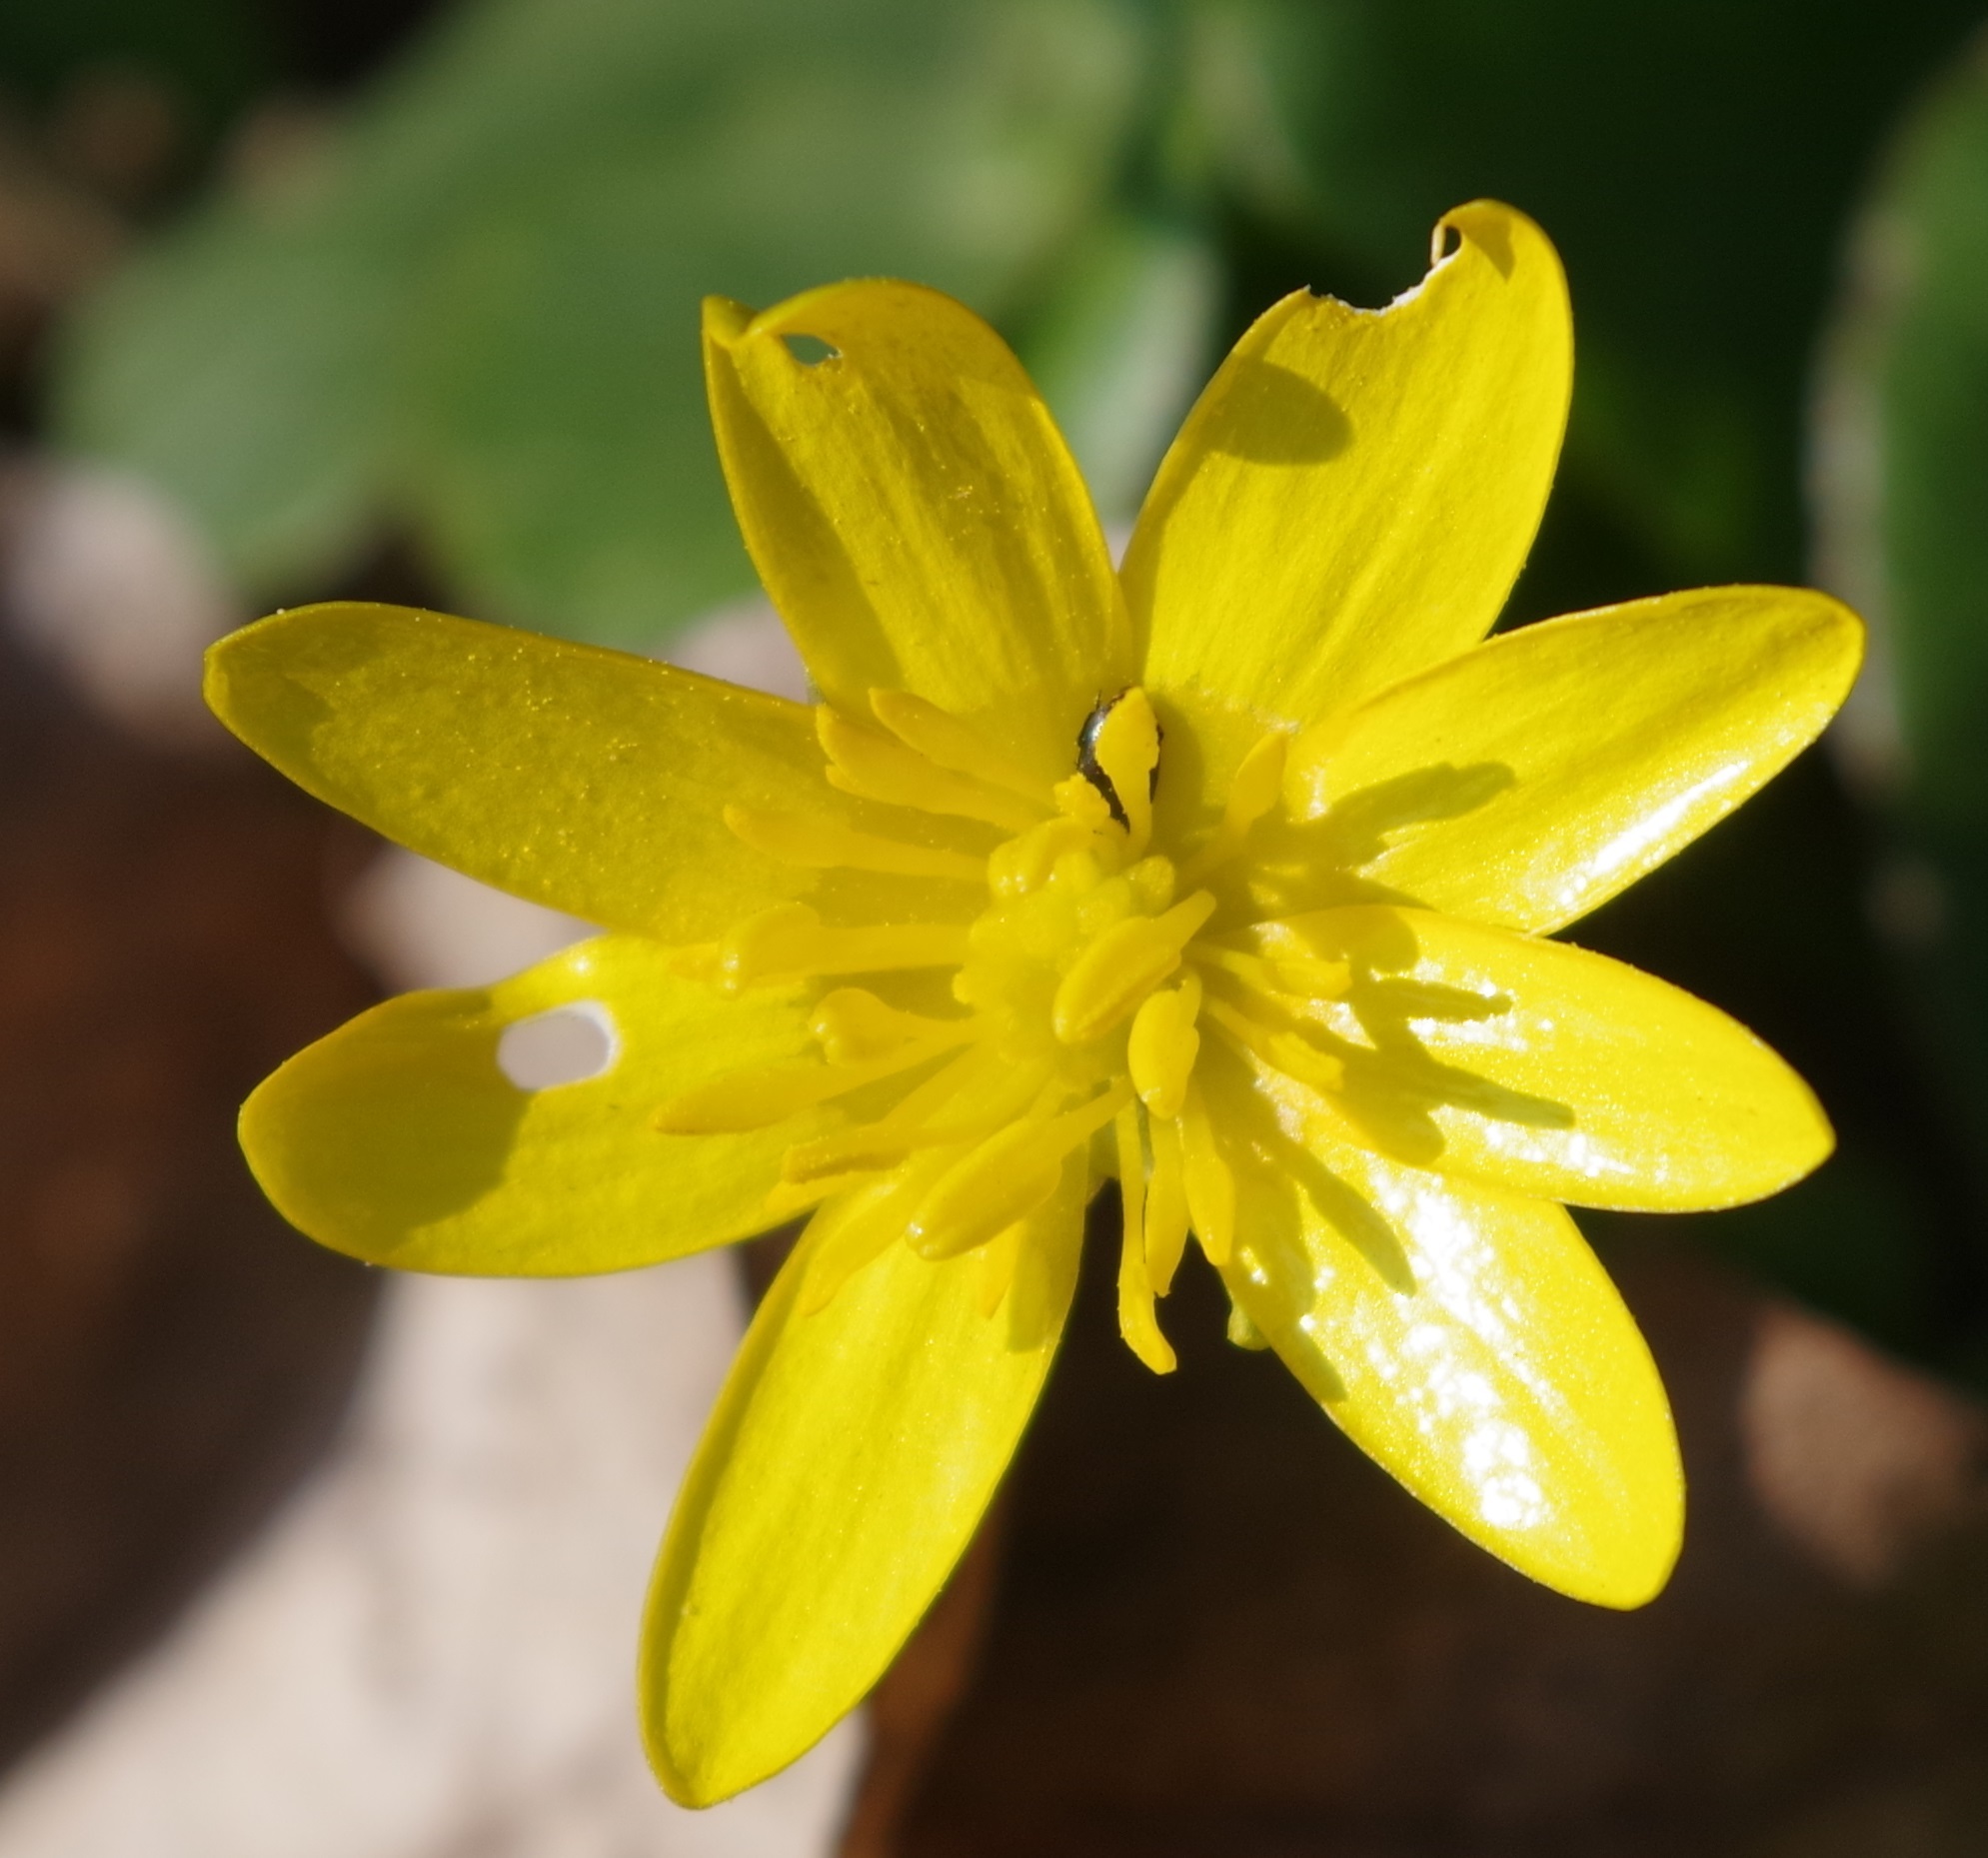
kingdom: Plantae
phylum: Tracheophyta
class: Magnoliopsida
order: Ranunculales
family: Ranunculaceae
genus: Ficaria
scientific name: Ficaria verna
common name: Lesser celandine
